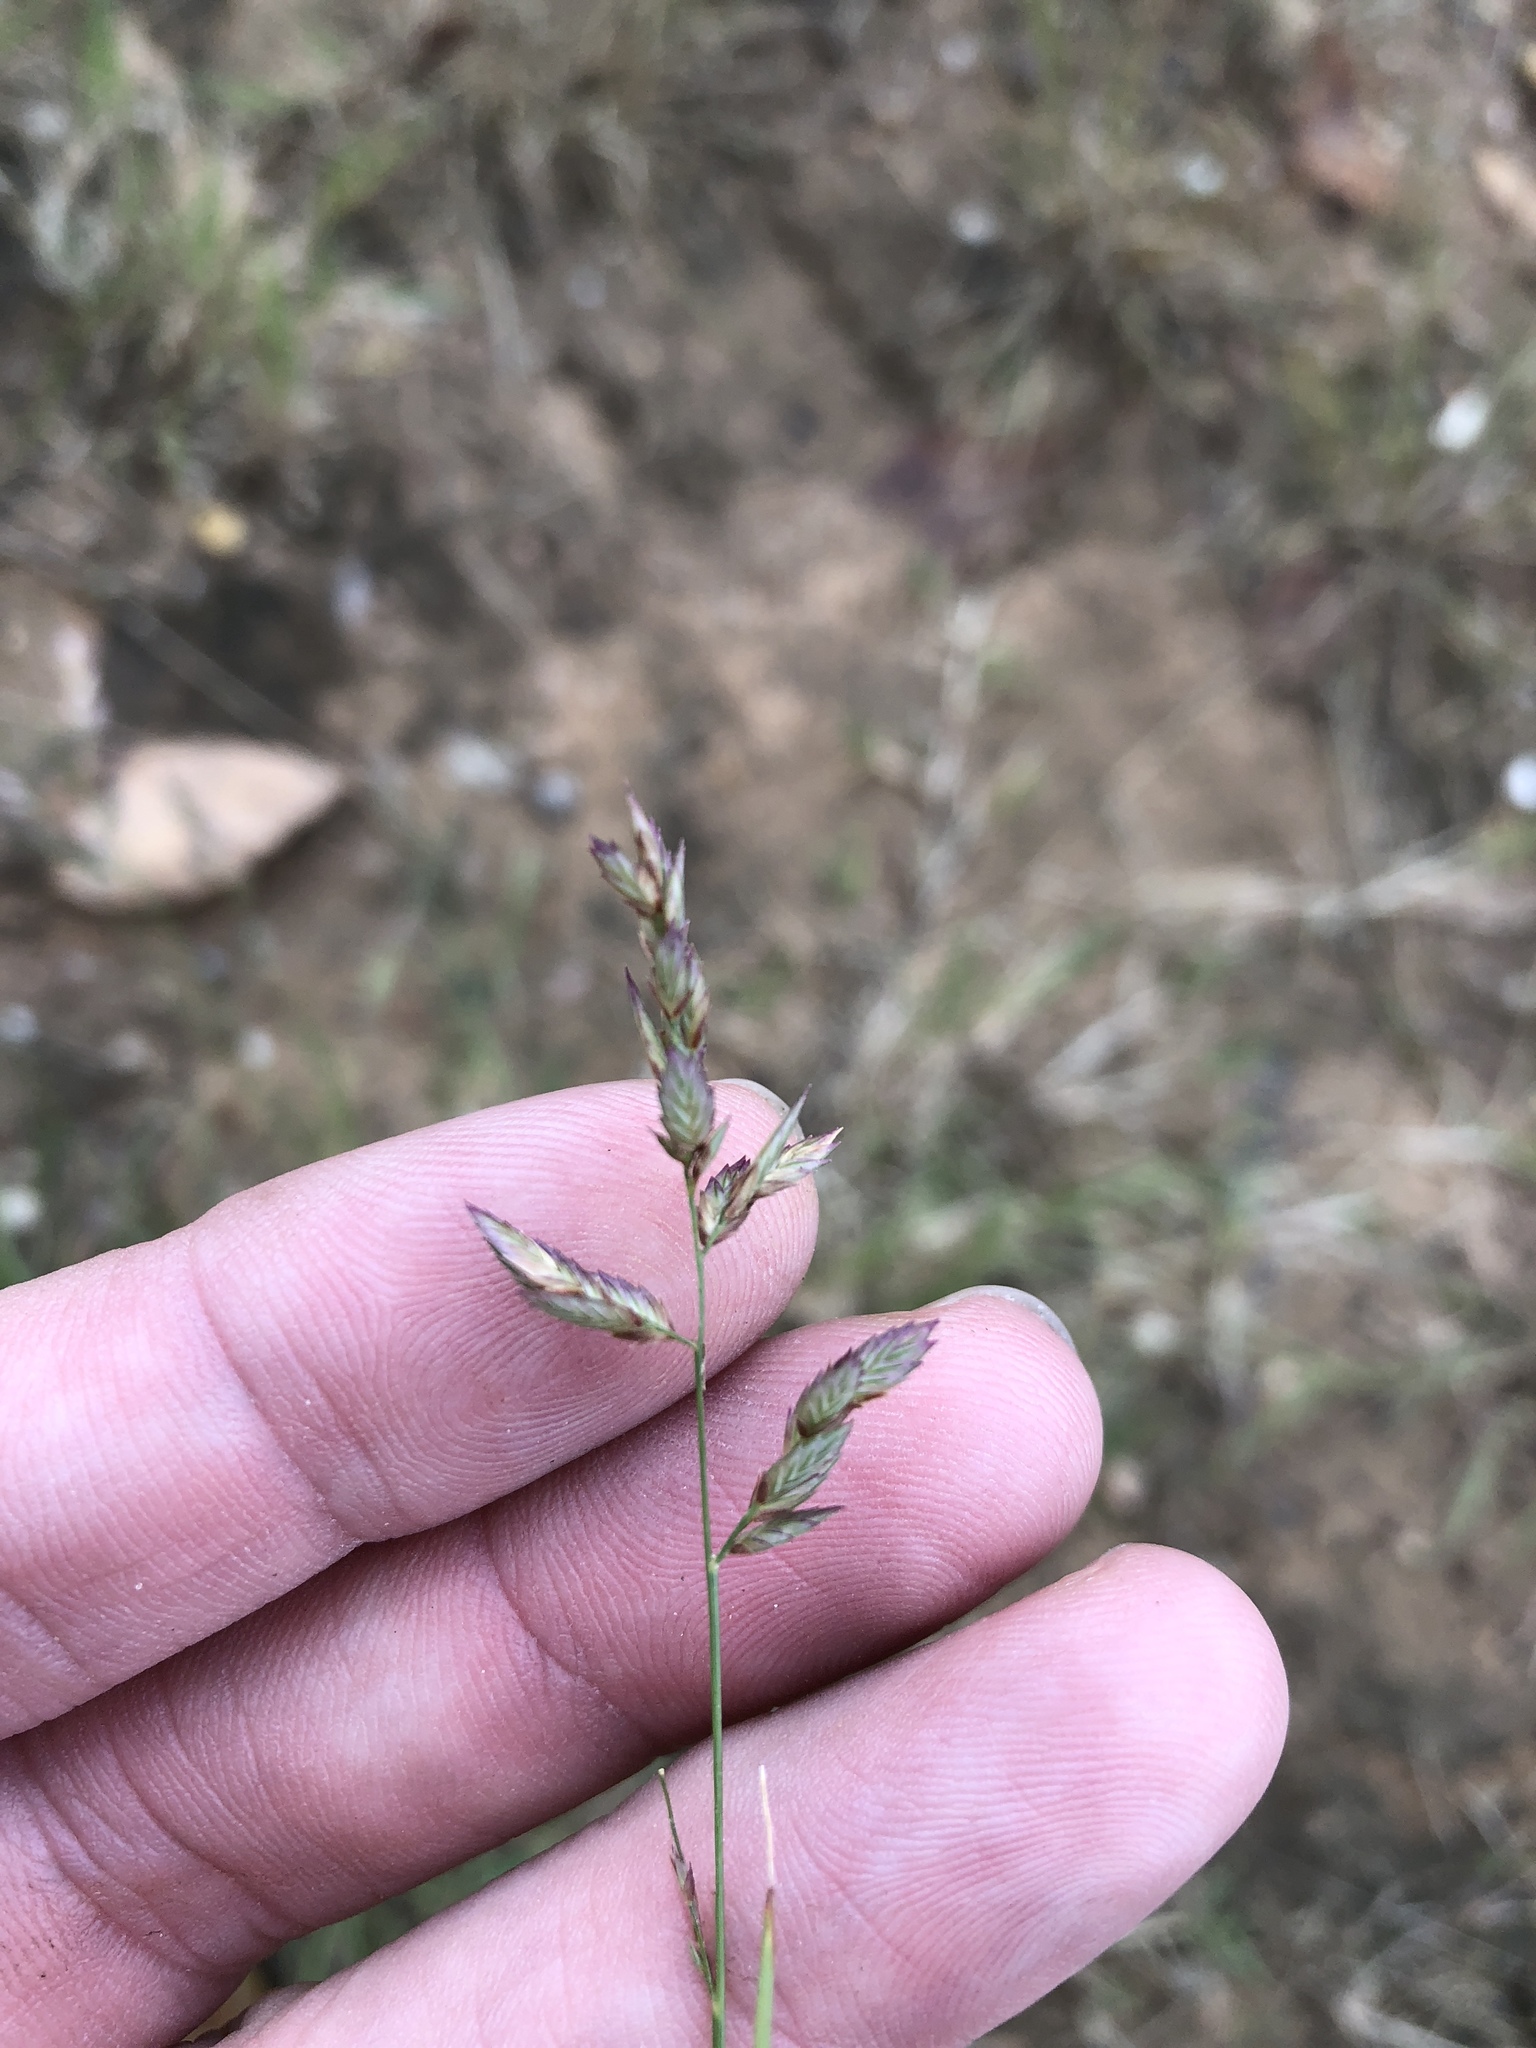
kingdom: Plantae
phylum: Tracheophyta
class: Liliopsida
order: Poales
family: Poaceae
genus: Eragrostis
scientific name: Eragrostis secundiflora
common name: Red love grass
